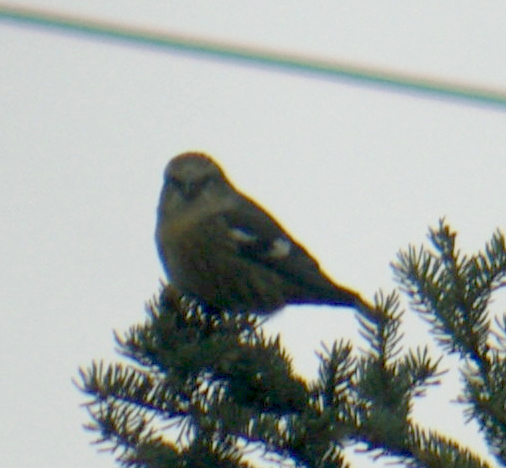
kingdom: Animalia
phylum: Chordata
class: Aves
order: Passeriformes
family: Fringillidae
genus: Loxia
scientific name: Loxia leucoptera
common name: Two-barred crossbill
